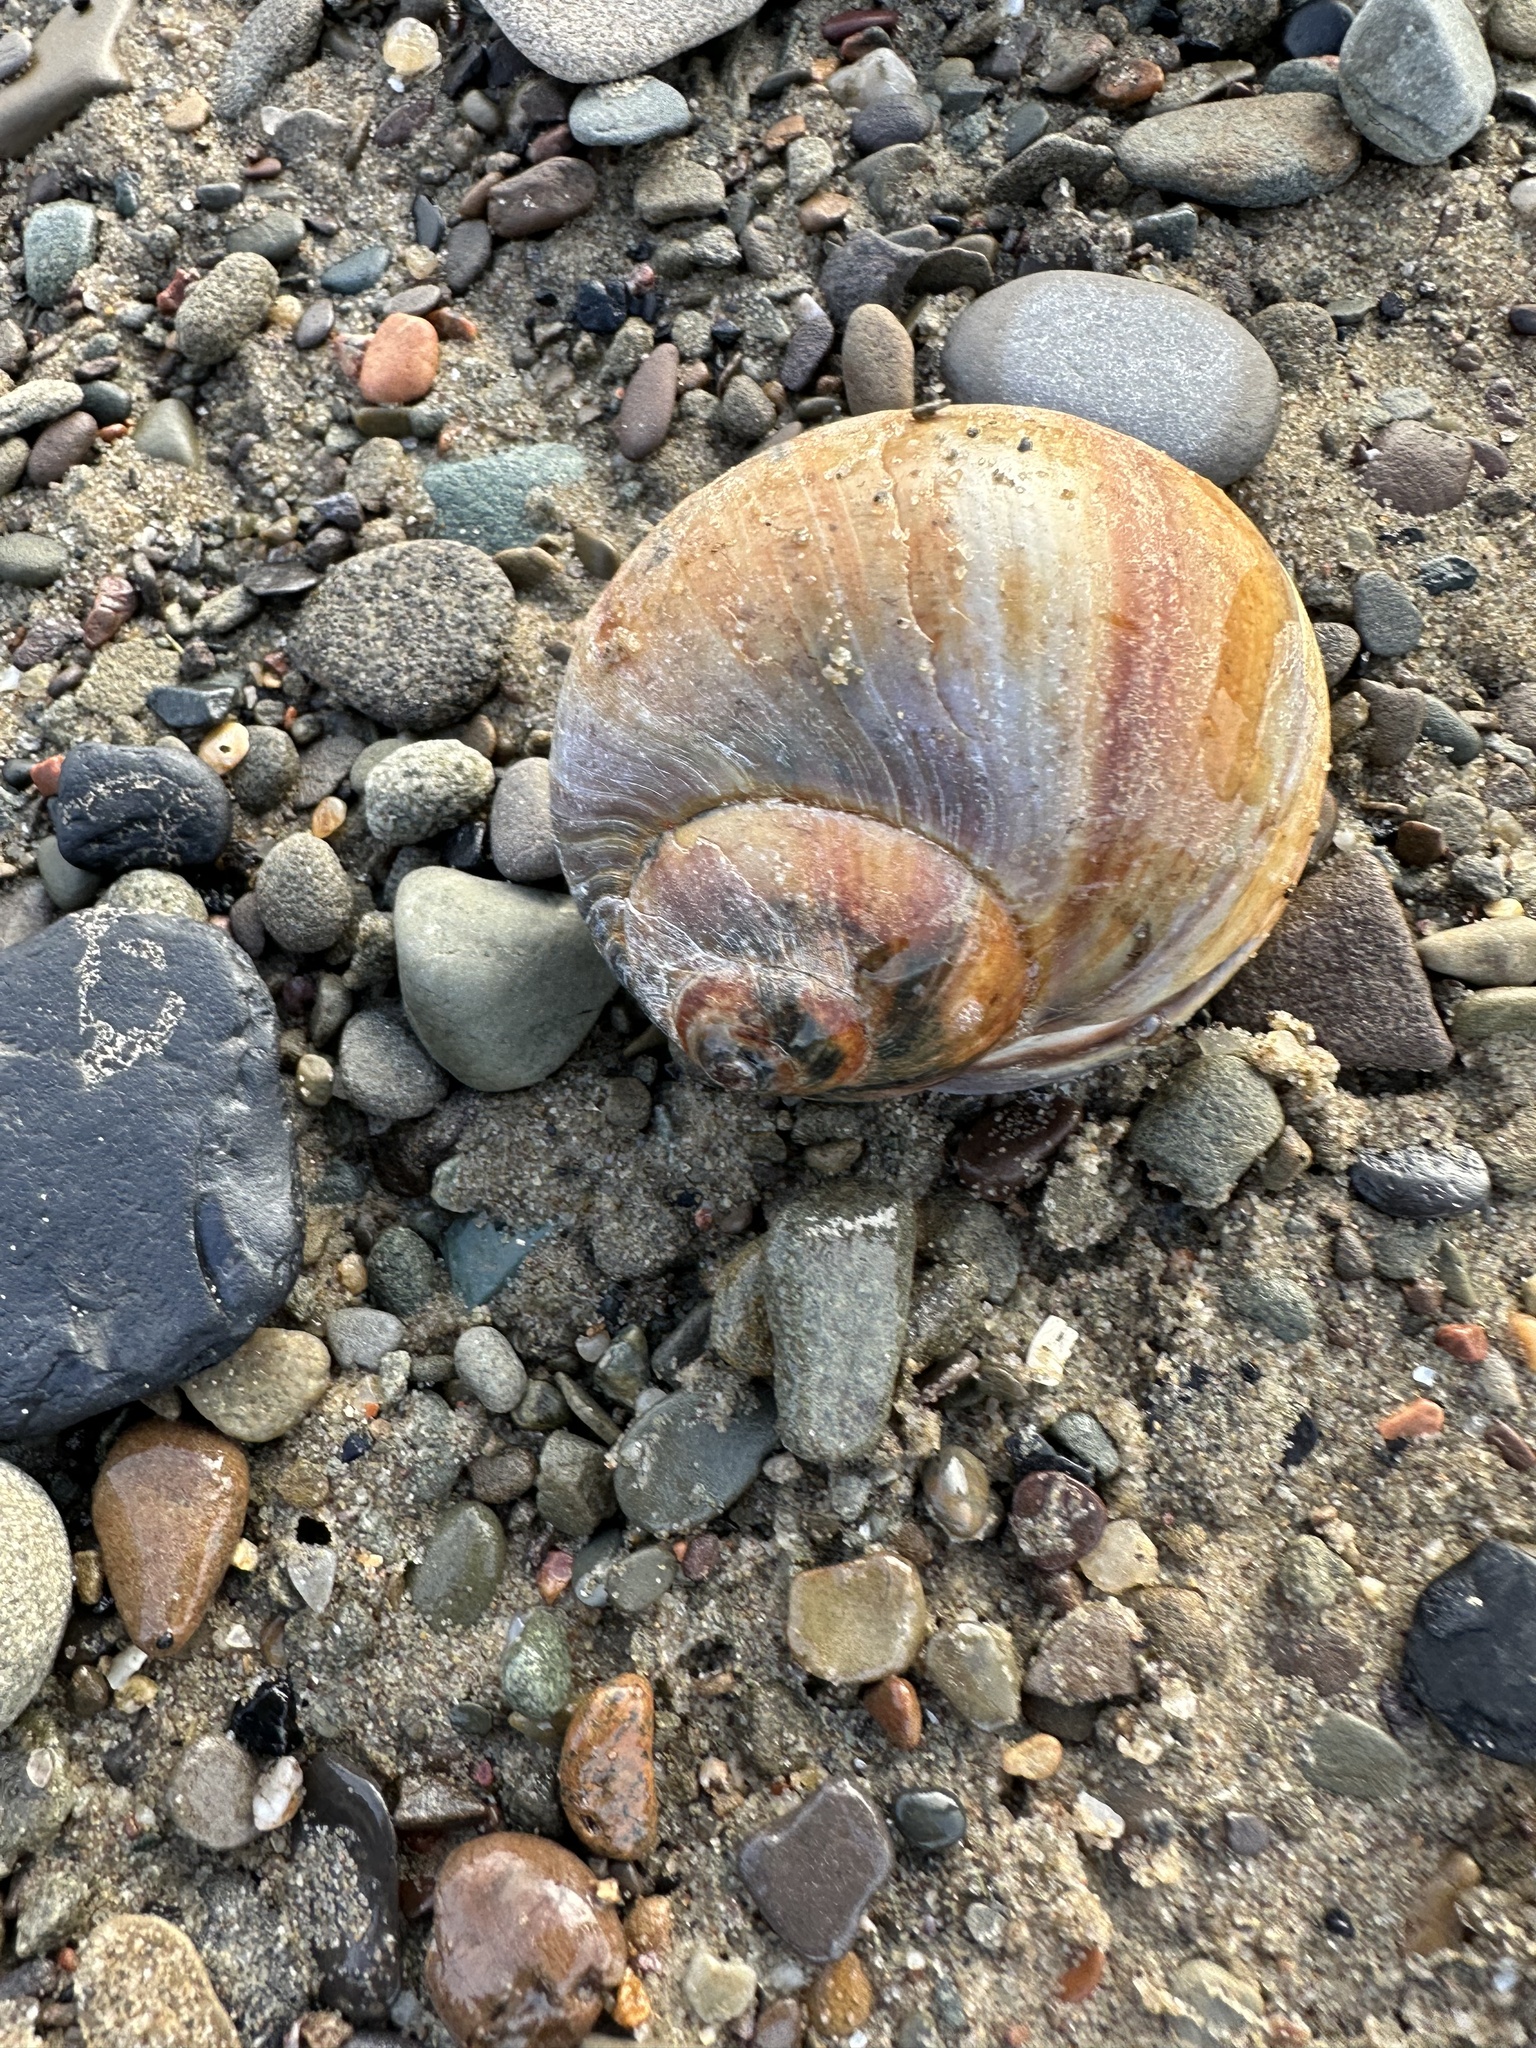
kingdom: Animalia
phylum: Mollusca
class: Gastropoda
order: Littorinimorpha
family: Naticidae
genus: Euspira
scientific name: Euspira heros
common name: Common northern moonsnail
